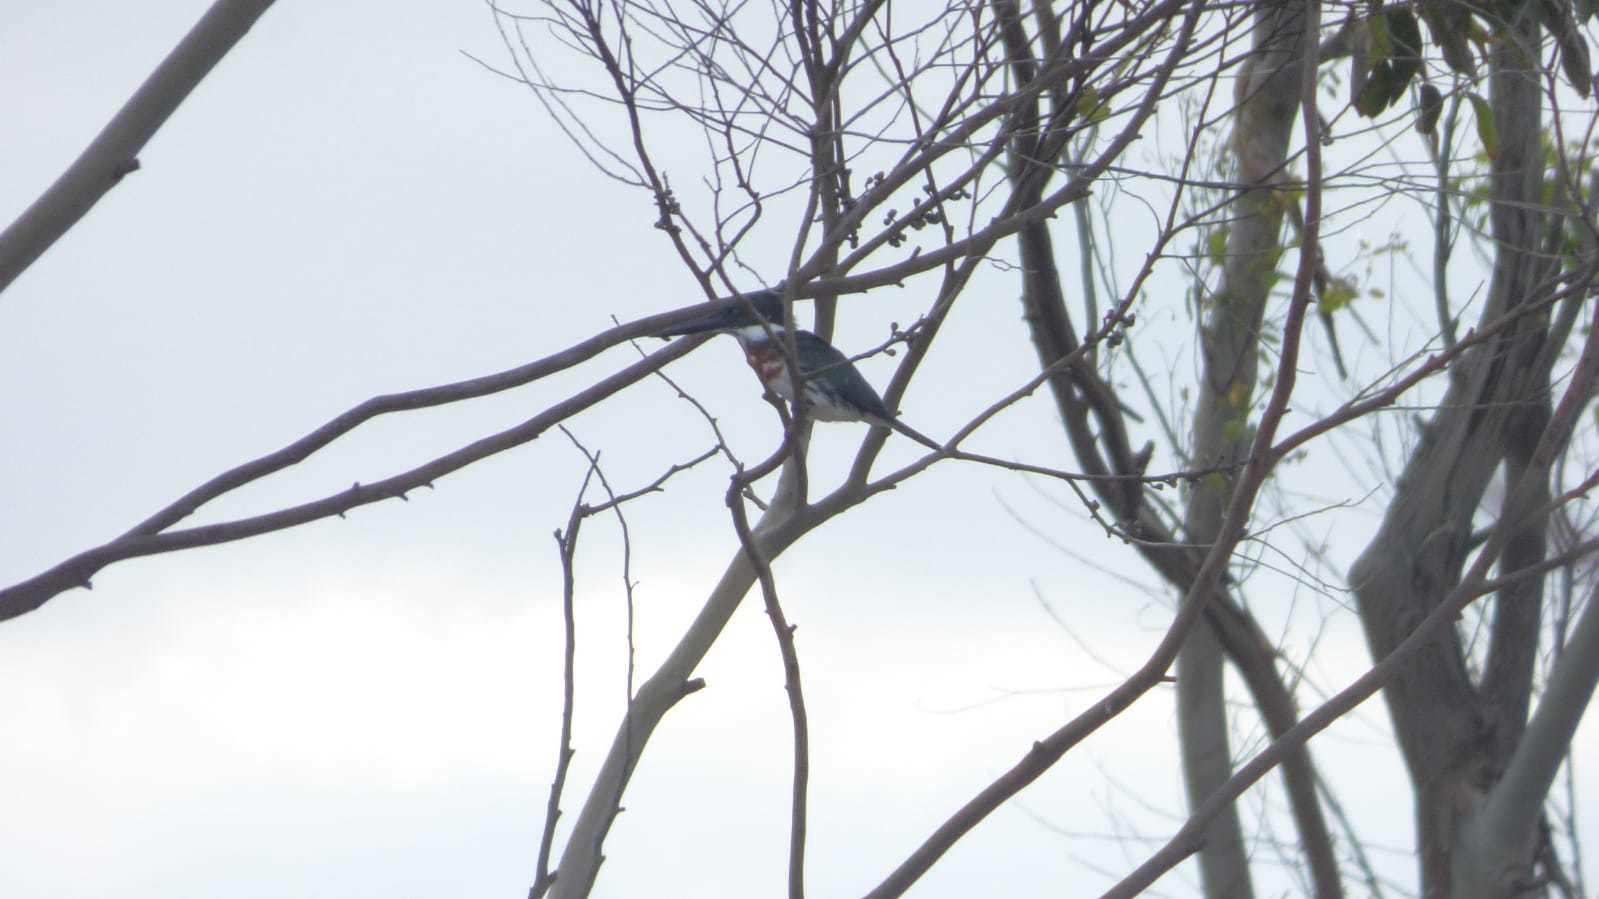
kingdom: Animalia
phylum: Chordata
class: Aves
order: Coraciiformes
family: Alcedinidae
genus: Chloroceryle
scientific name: Chloroceryle amazona
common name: Amazon kingfisher
